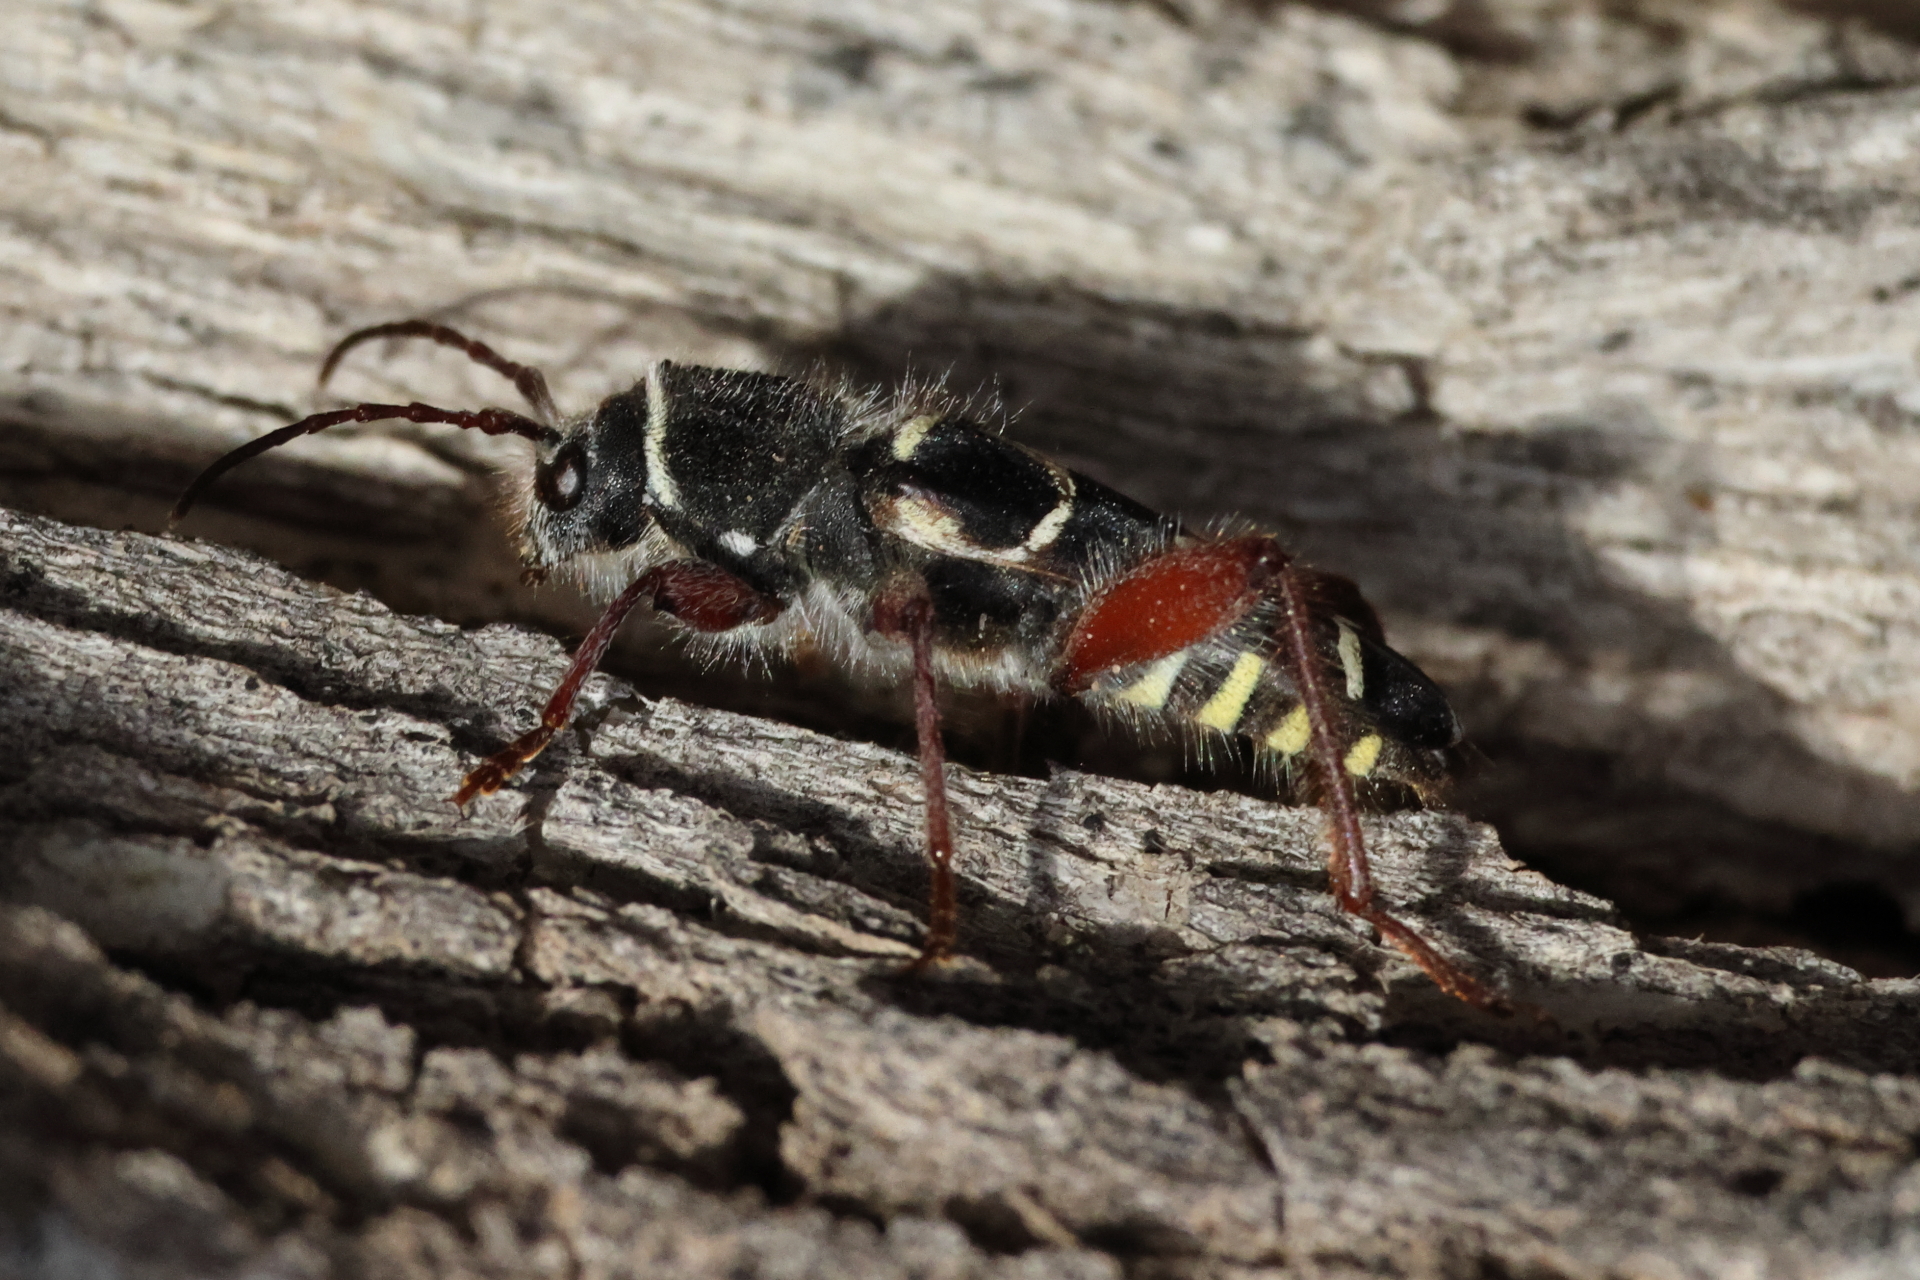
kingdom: Animalia
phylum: Arthropoda
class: Insecta
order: Coleoptera
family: Cerambycidae
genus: Neoclytus
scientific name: Neoclytus caprea
